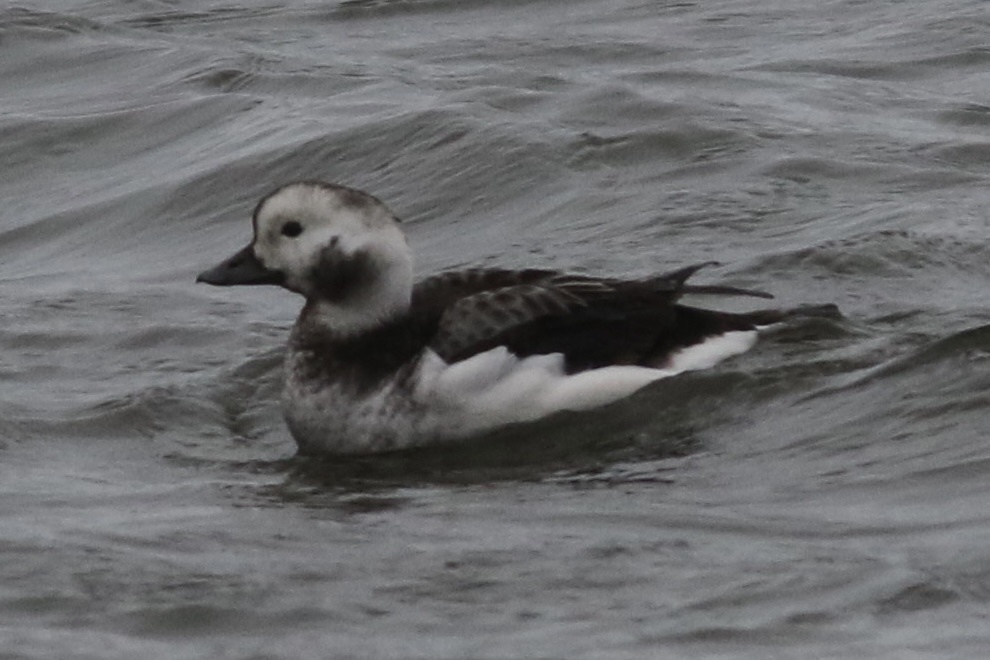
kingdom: Animalia
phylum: Chordata
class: Aves
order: Anseriformes
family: Anatidae
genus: Clangula
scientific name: Clangula hyemalis
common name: Long-tailed duck
